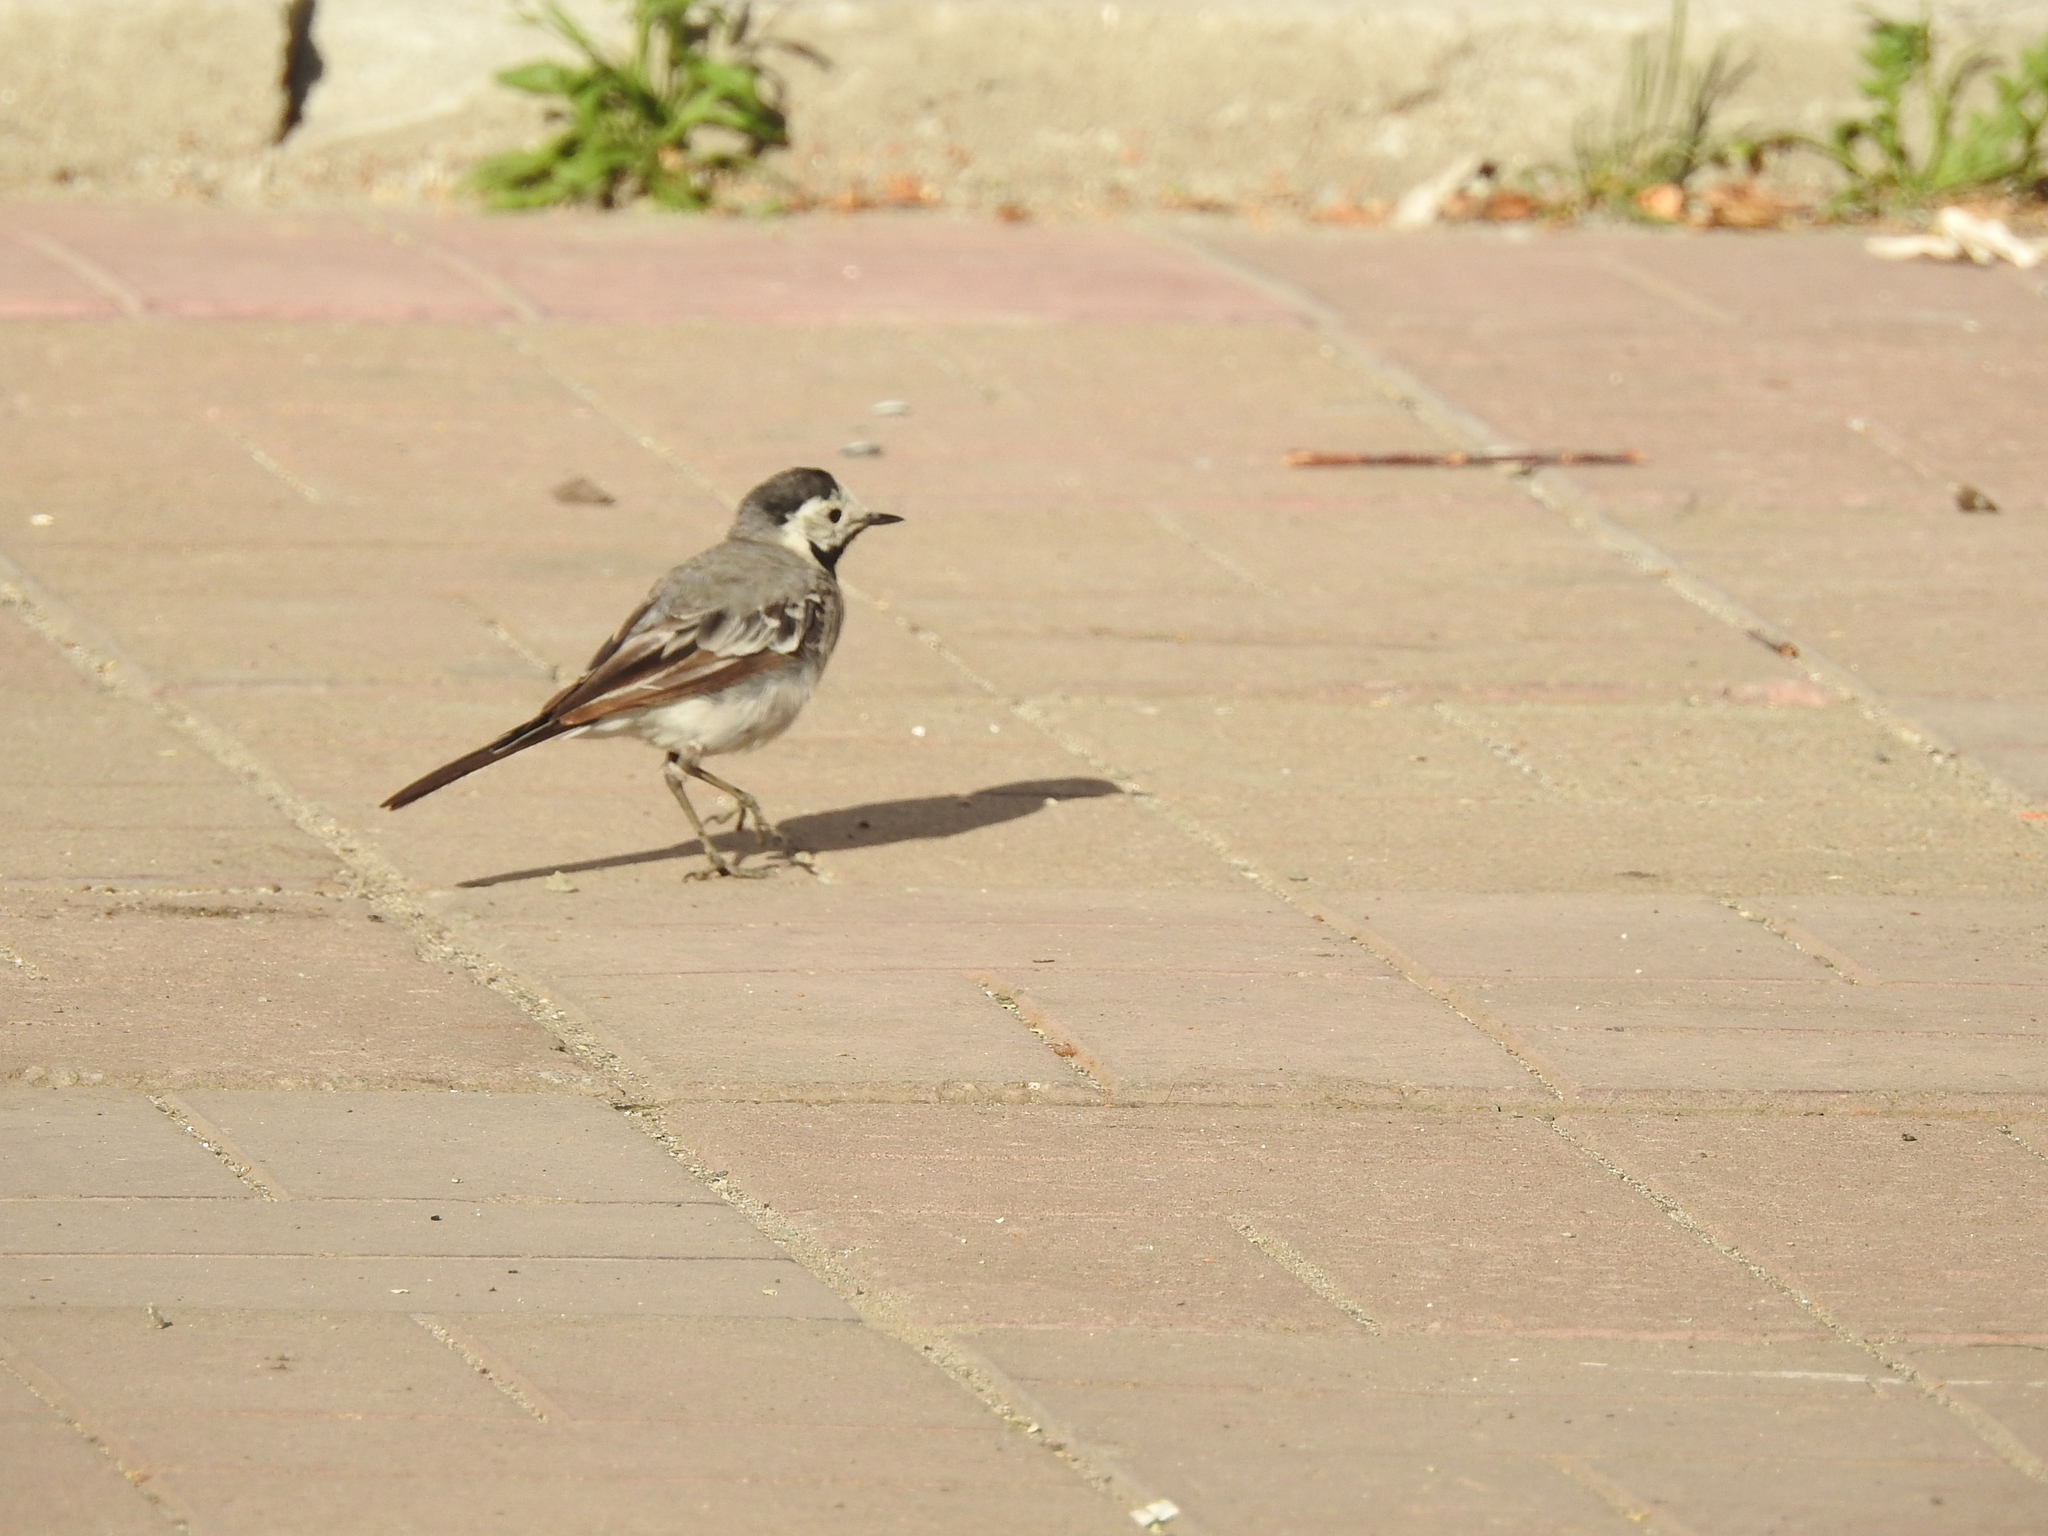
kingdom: Animalia
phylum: Chordata
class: Aves
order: Passeriformes
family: Motacillidae
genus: Motacilla
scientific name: Motacilla alba
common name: White wagtail
